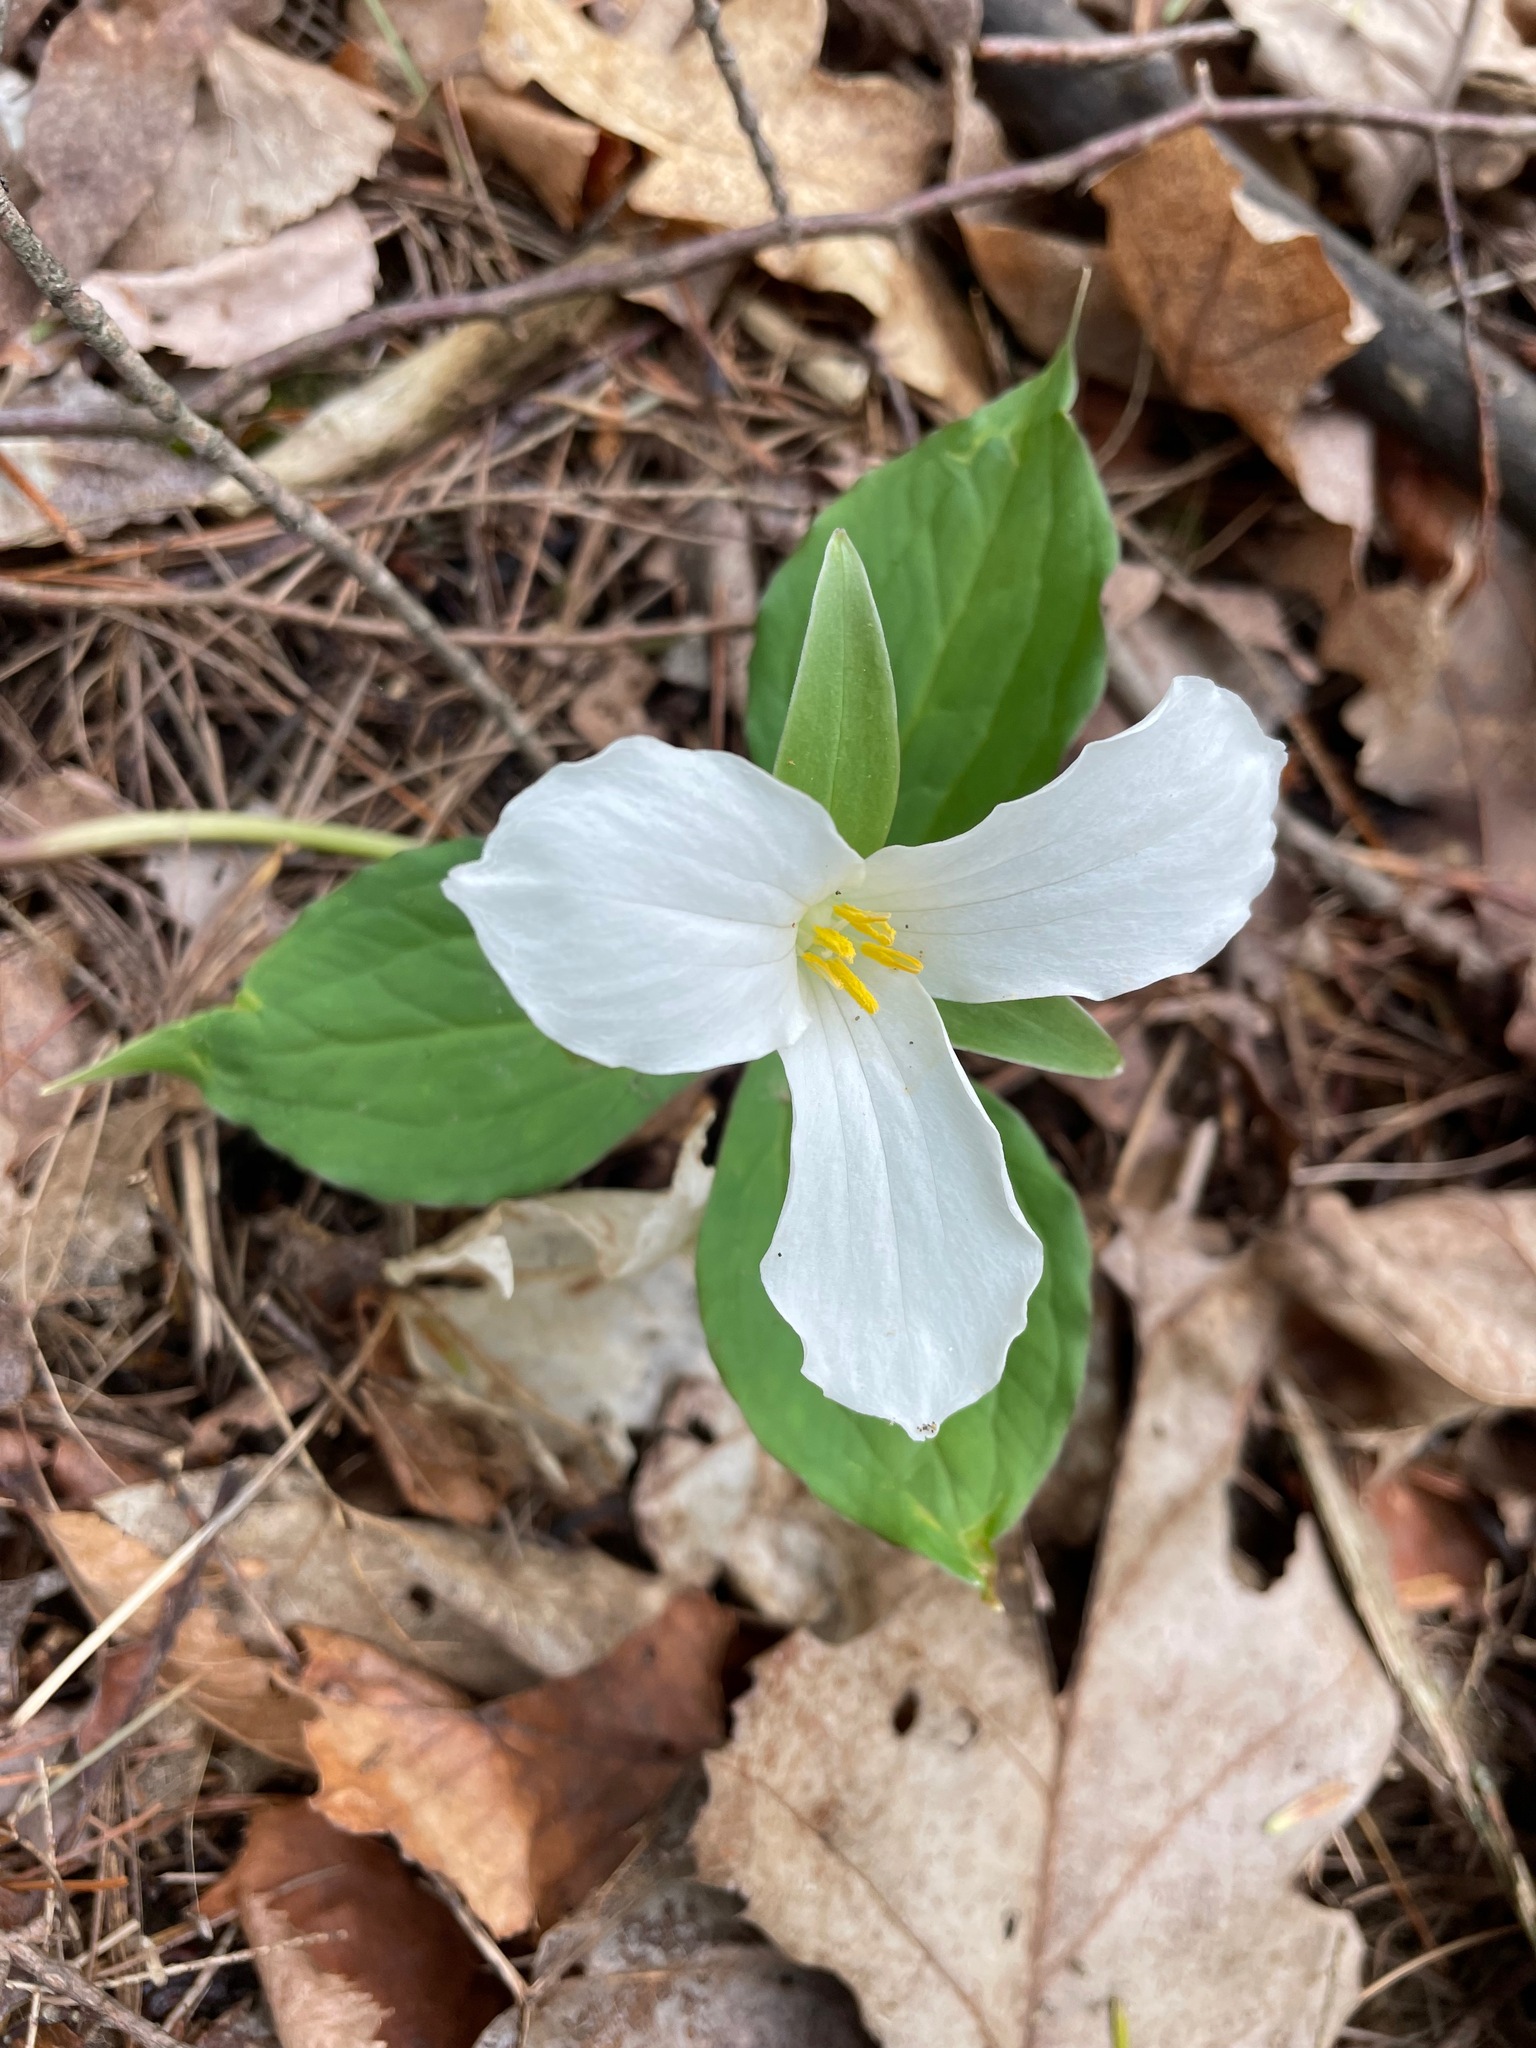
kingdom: Plantae
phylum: Tracheophyta
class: Liliopsida
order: Liliales
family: Melanthiaceae
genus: Trillium
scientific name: Trillium grandiflorum
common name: Great white trillium
